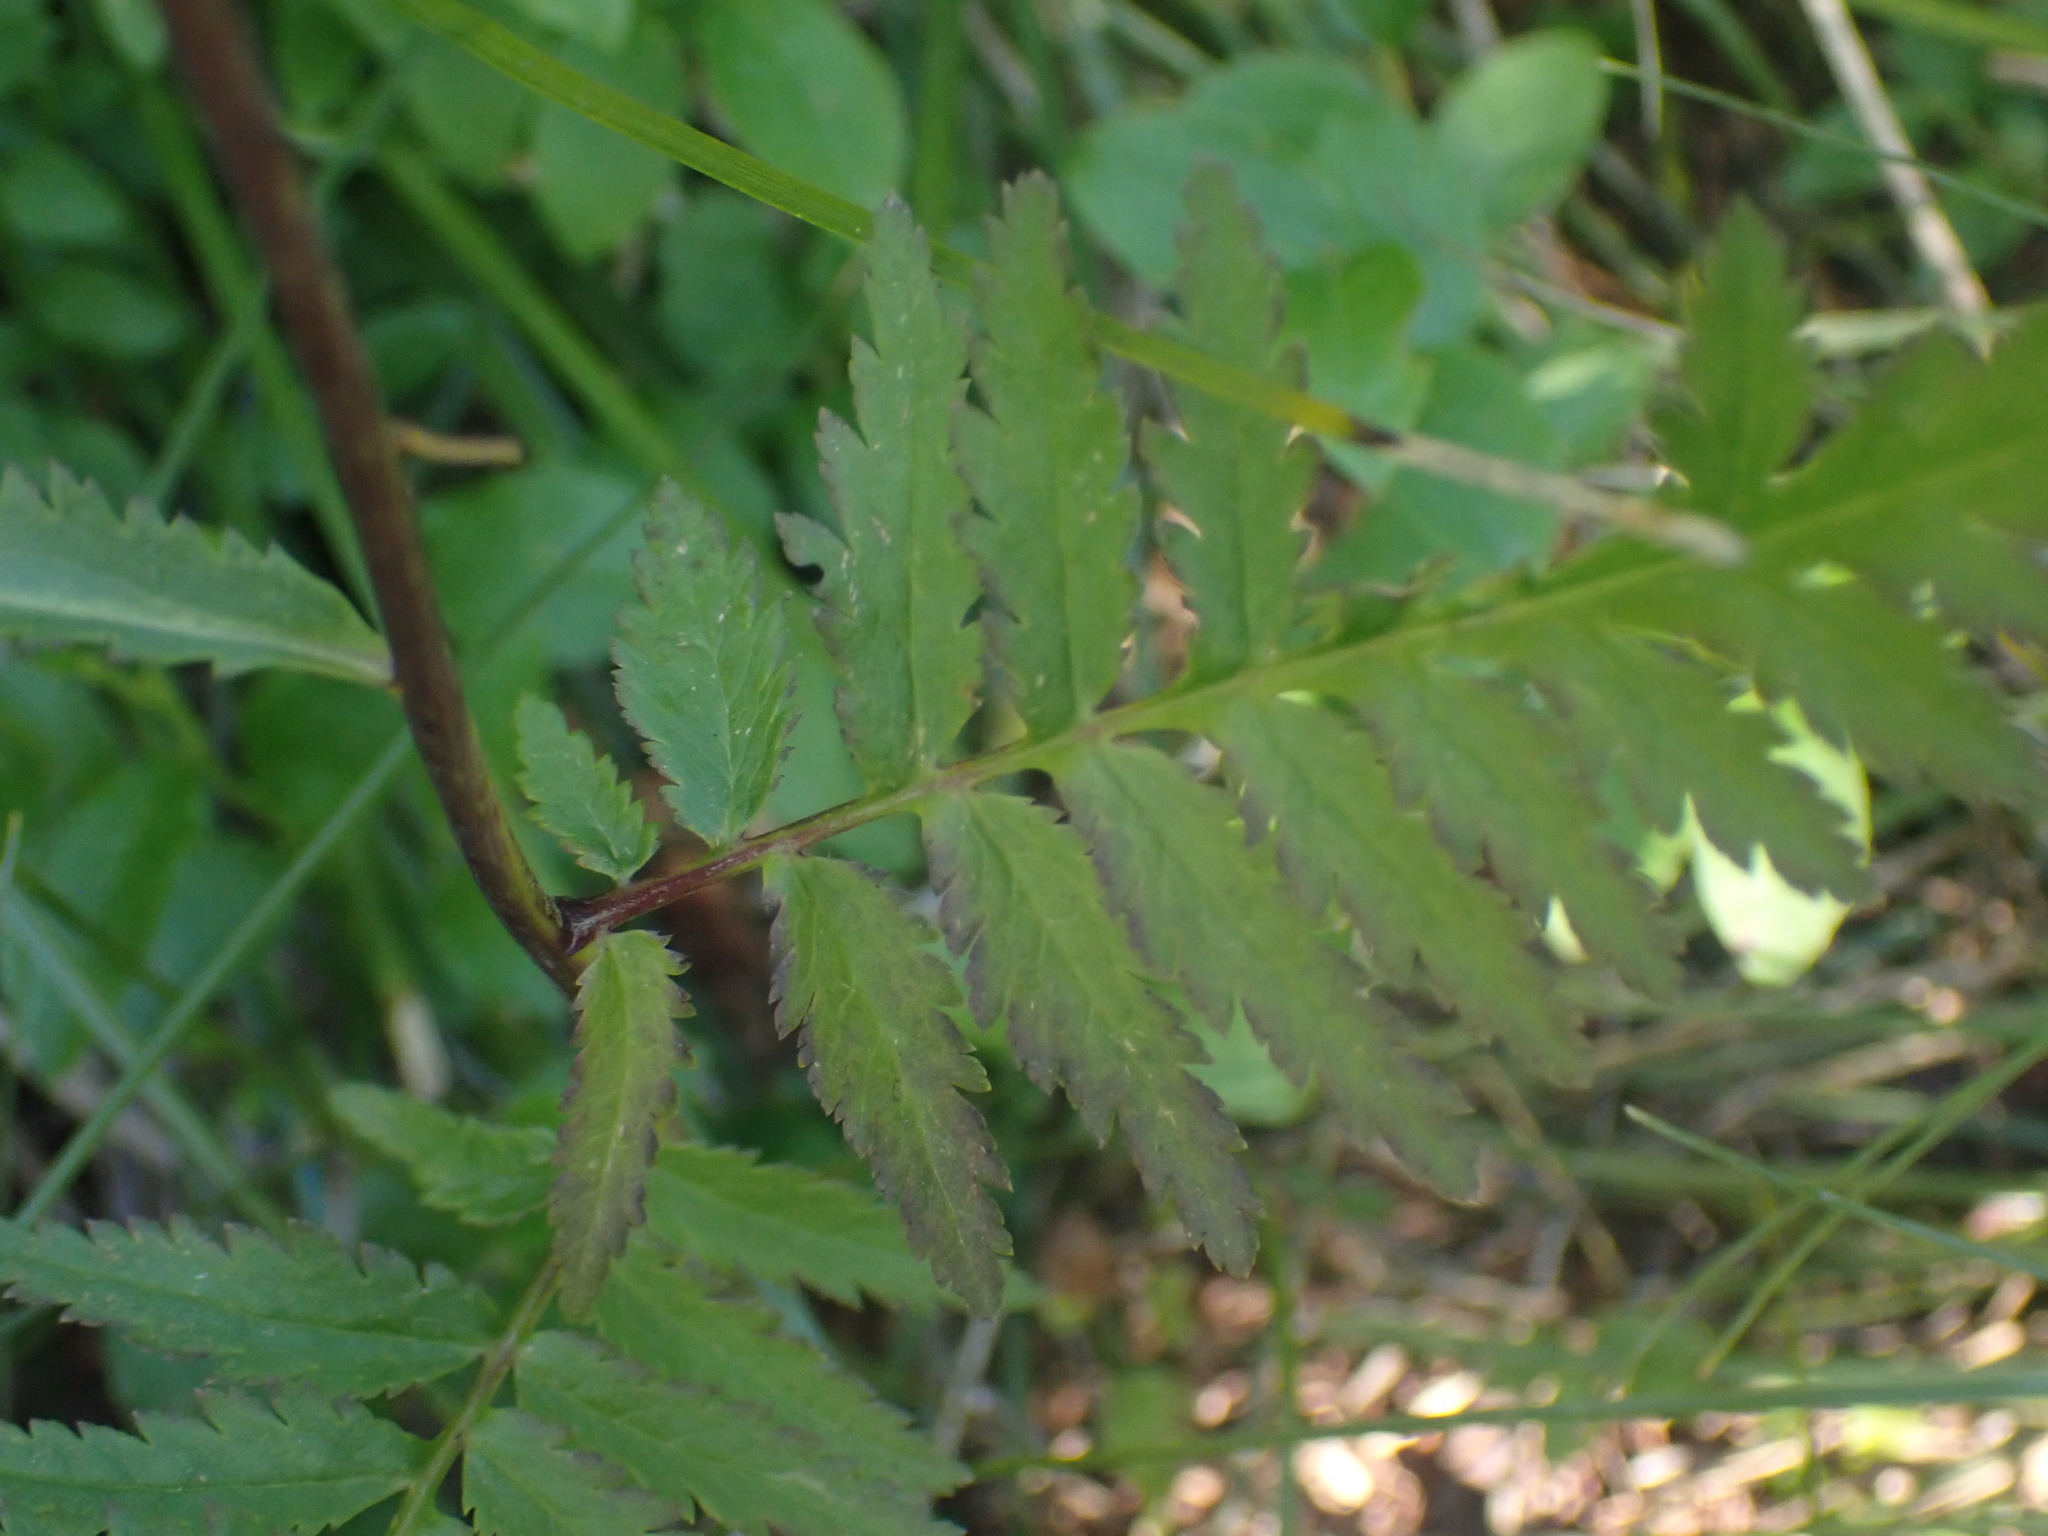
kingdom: Plantae
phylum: Tracheophyta
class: Magnoliopsida
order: Lamiales
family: Orobanchaceae
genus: Pedicularis
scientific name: Pedicularis bracteosa
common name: Bracted lousewort
